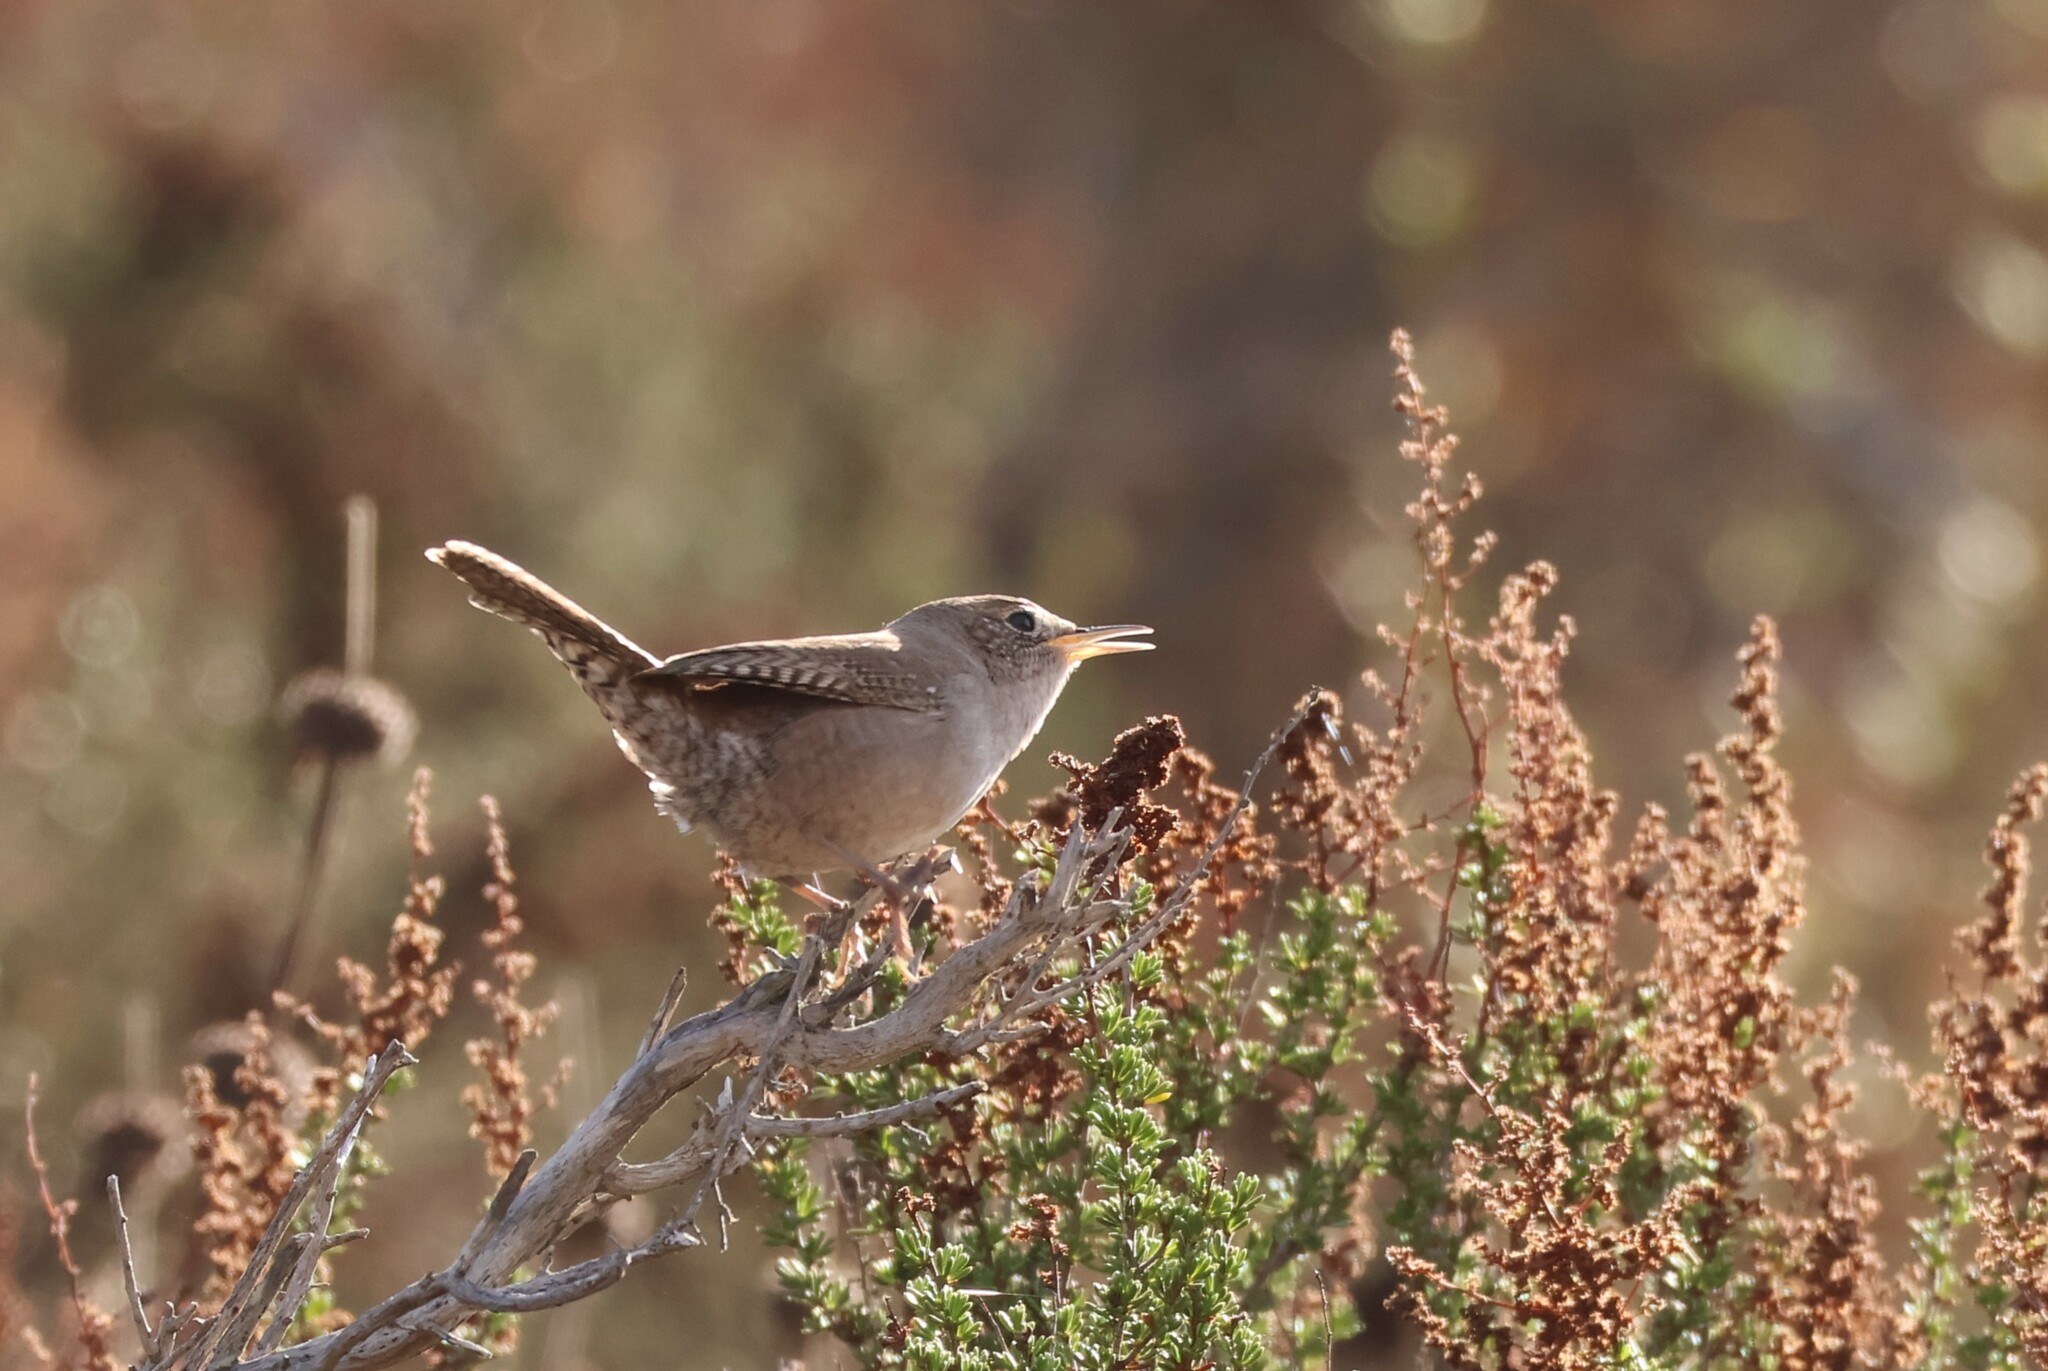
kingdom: Animalia
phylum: Chordata
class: Aves
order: Passeriformes
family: Troglodytidae
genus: Troglodytes
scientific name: Troglodytes aedon
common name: House wren
